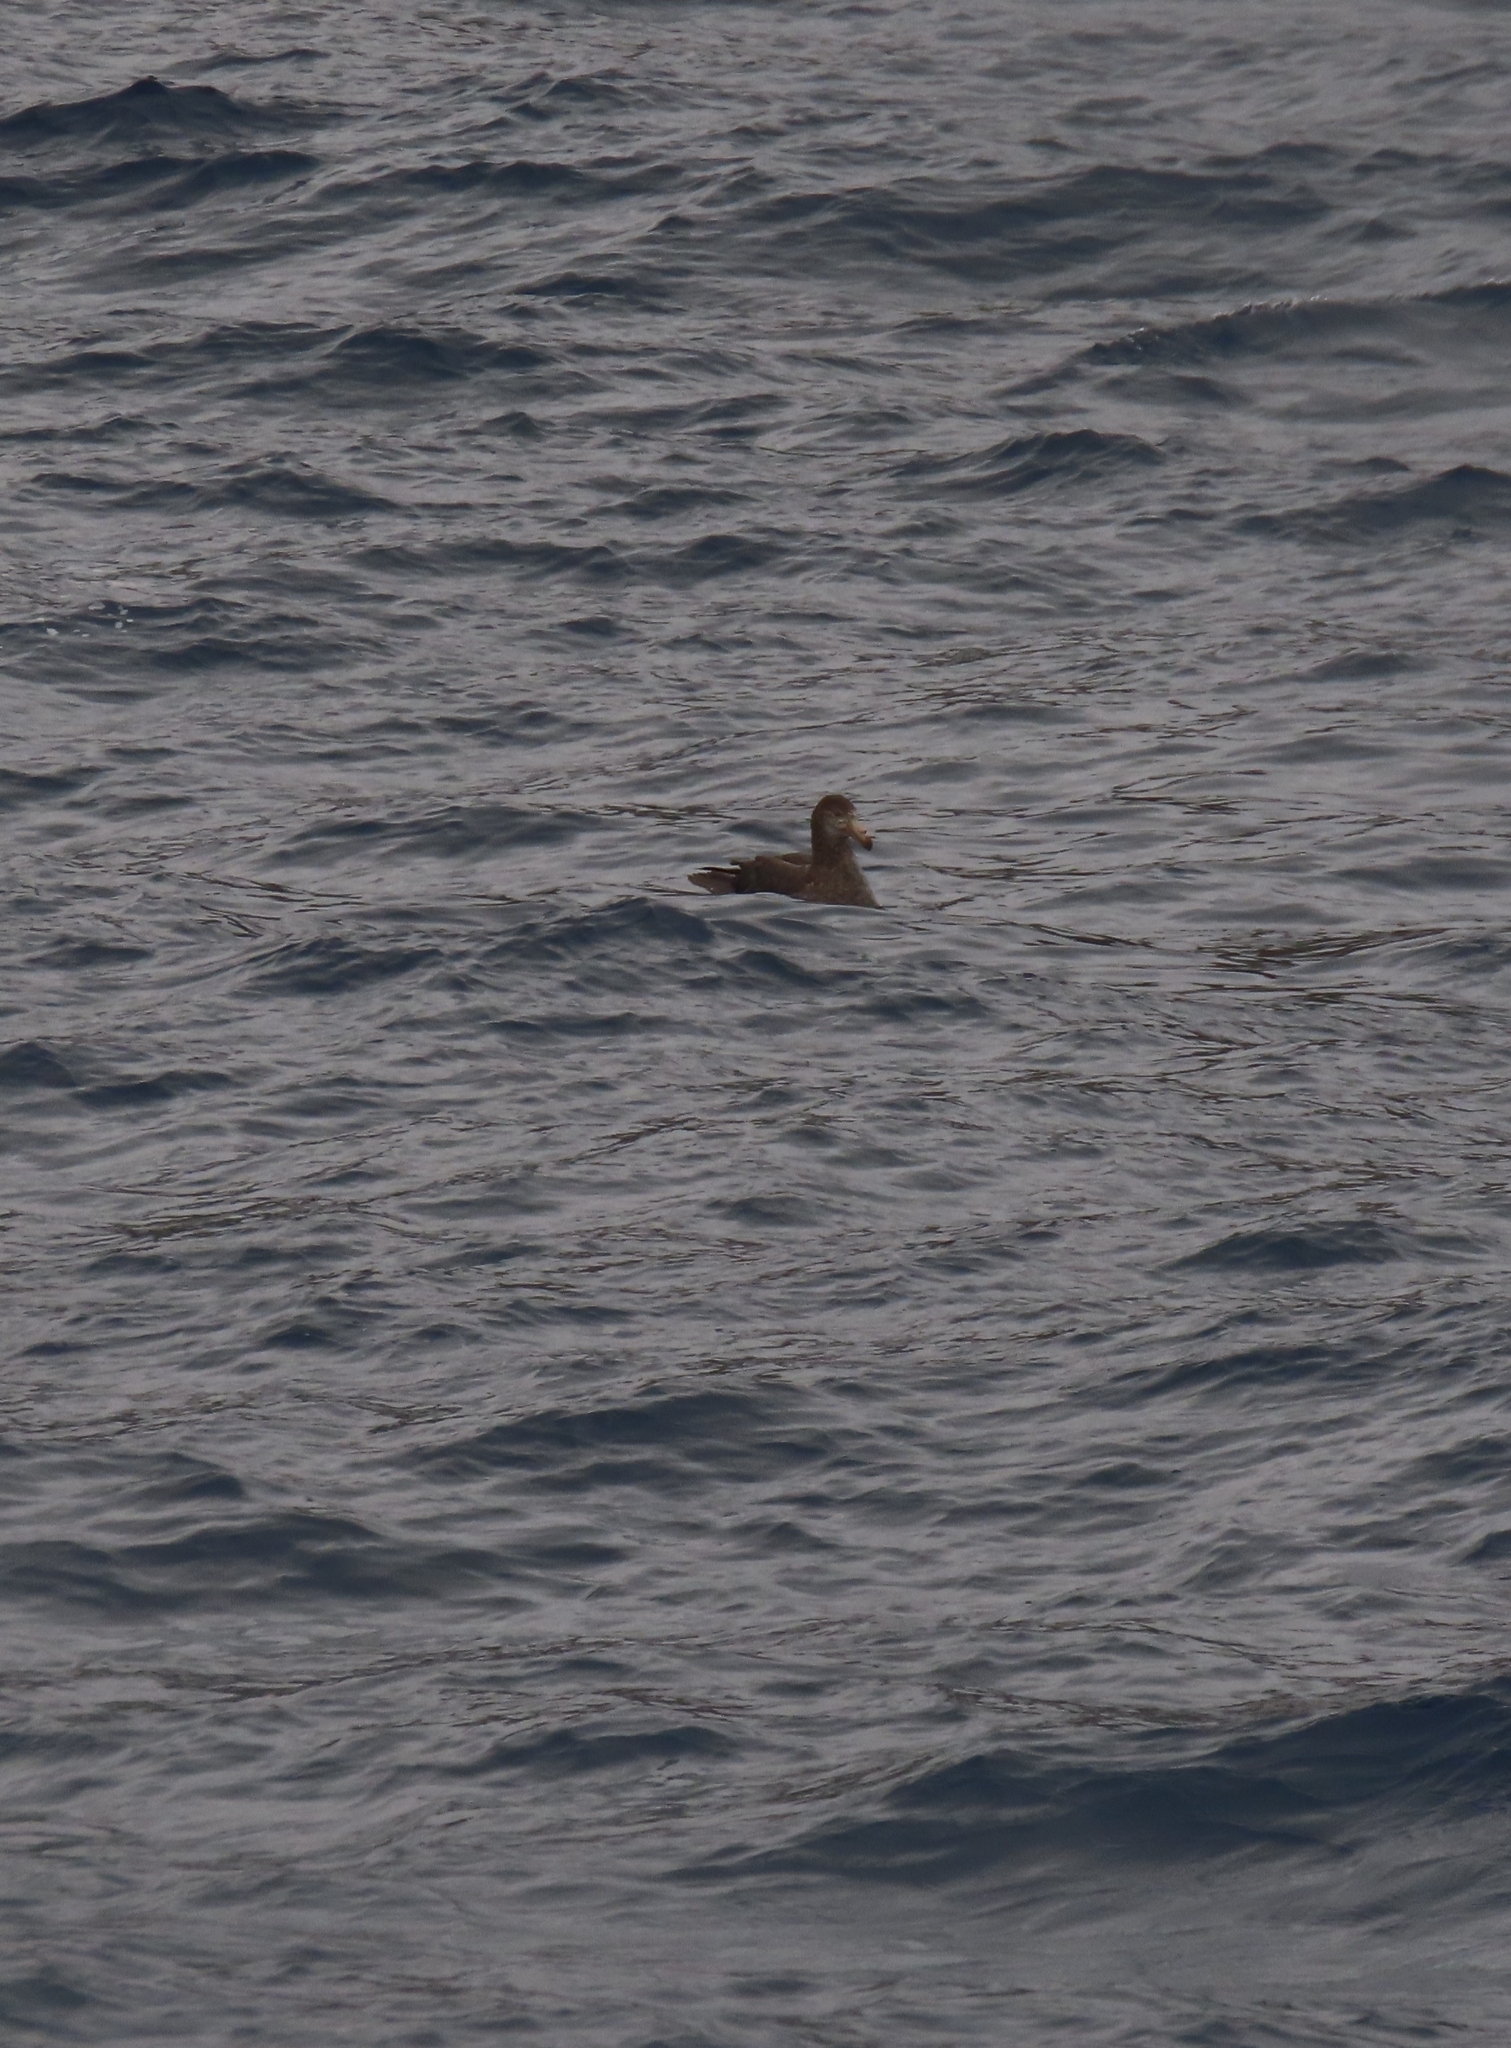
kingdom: Animalia
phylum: Chordata
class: Aves
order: Procellariiformes
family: Procellariidae
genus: Macronectes
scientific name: Macronectes halli
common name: Northern giant petrel
